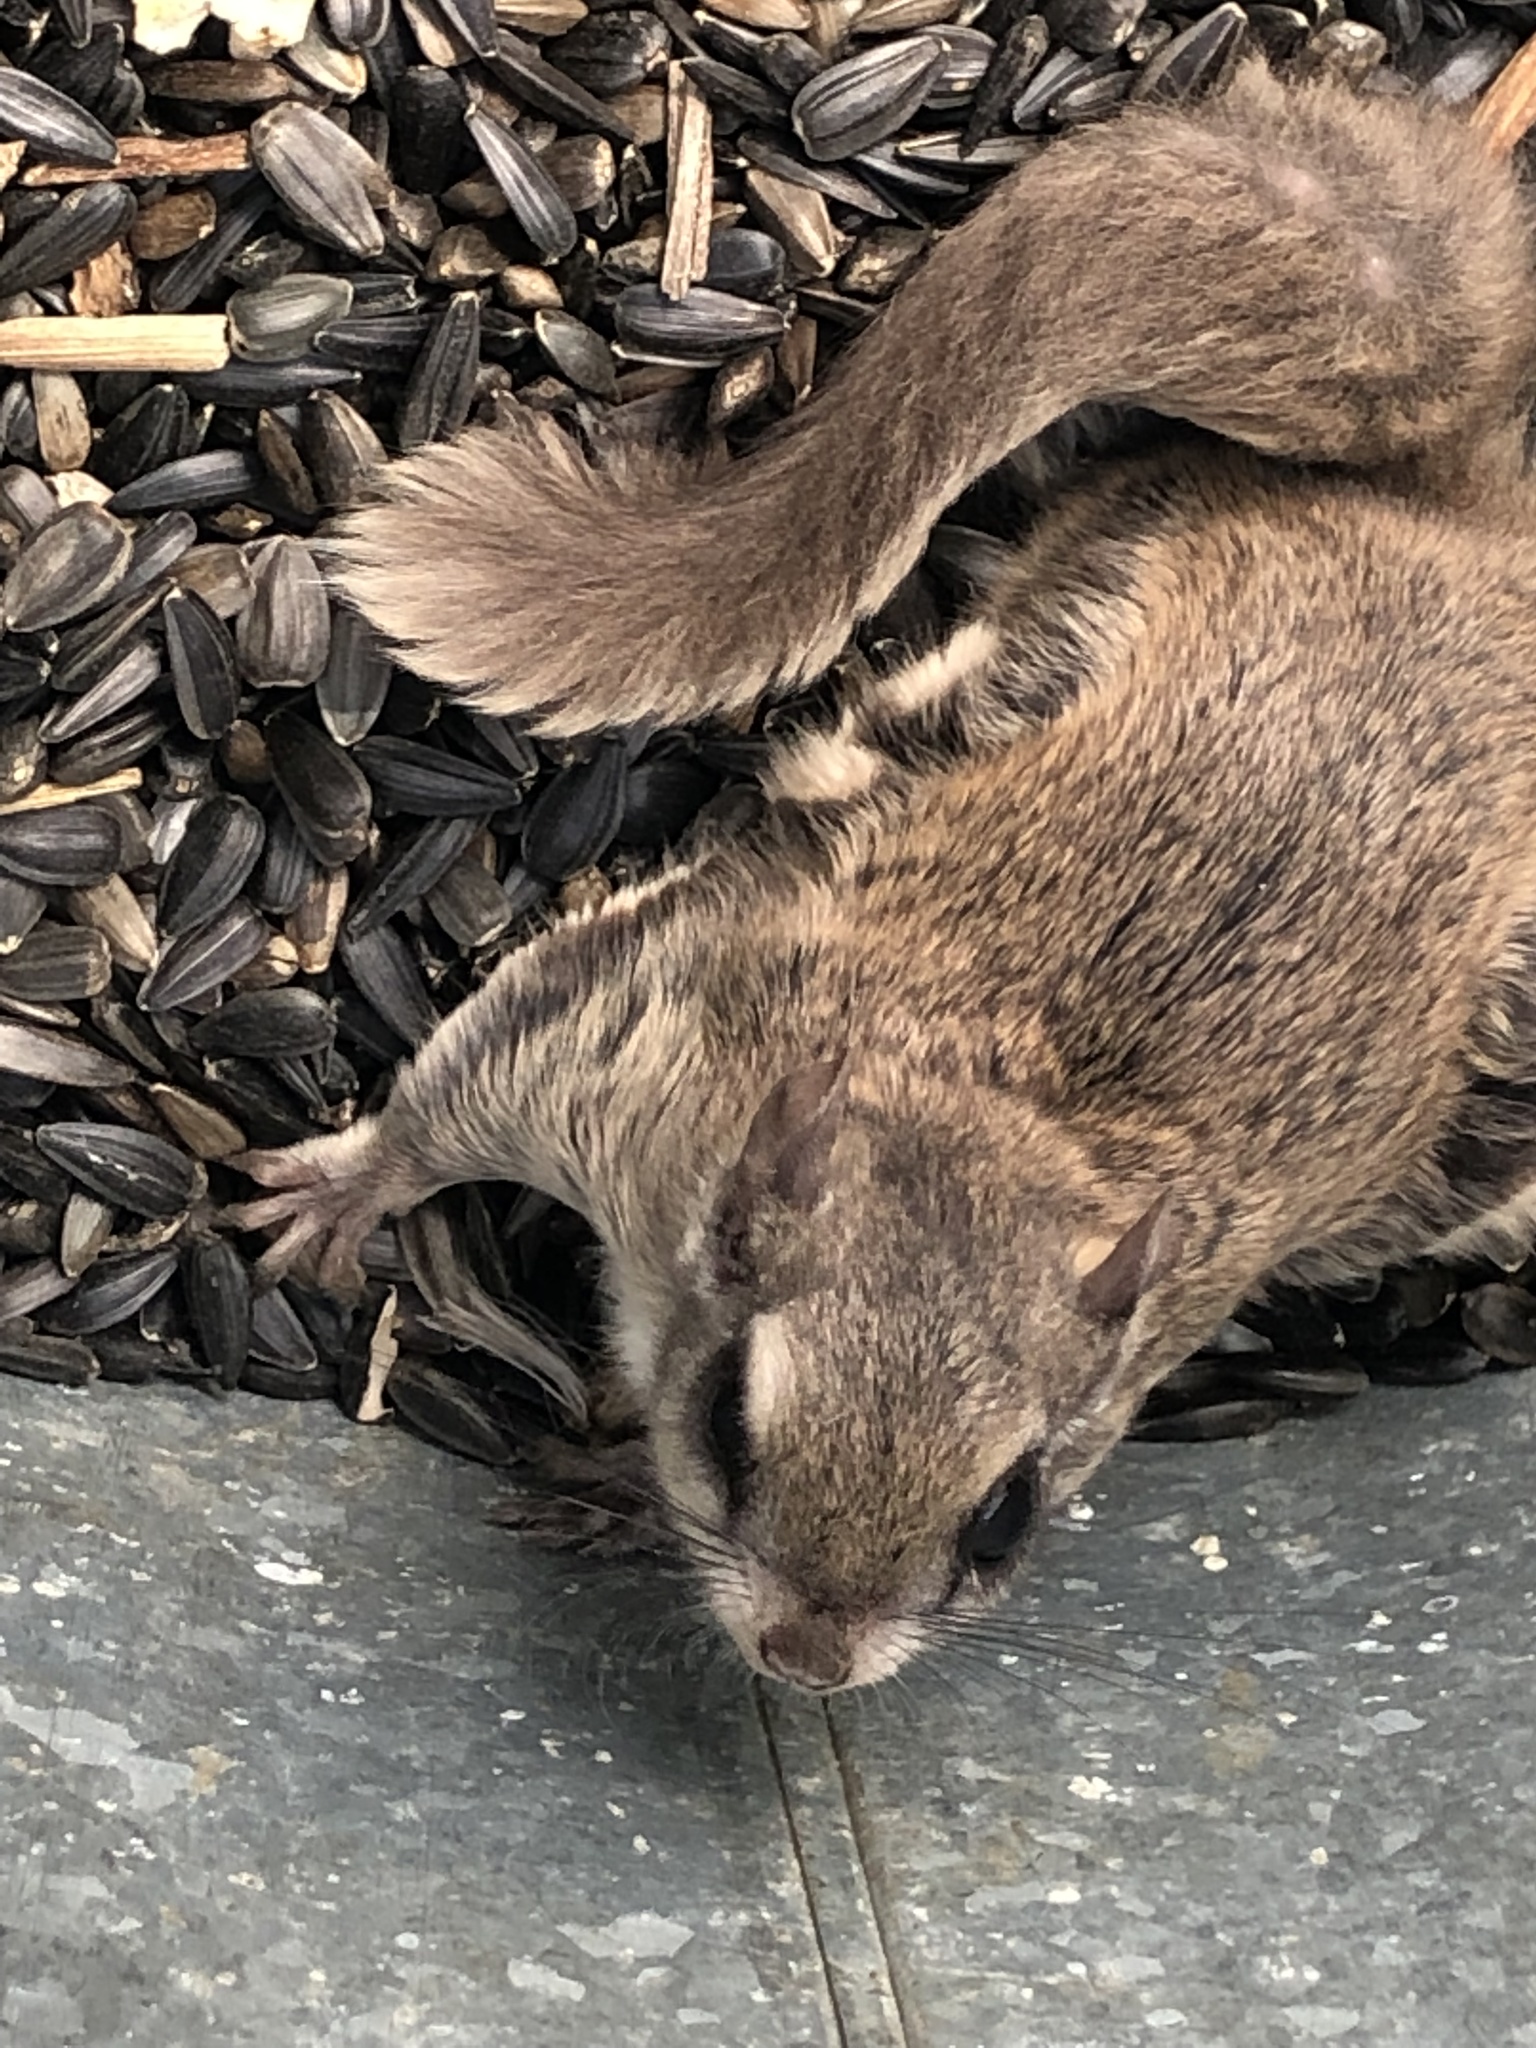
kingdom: Animalia
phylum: Chordata
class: Mammalia
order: Rodentia
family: Sciuridae
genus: Glaucomys
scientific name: Glaucomys volans
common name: Southern flying squirrel
